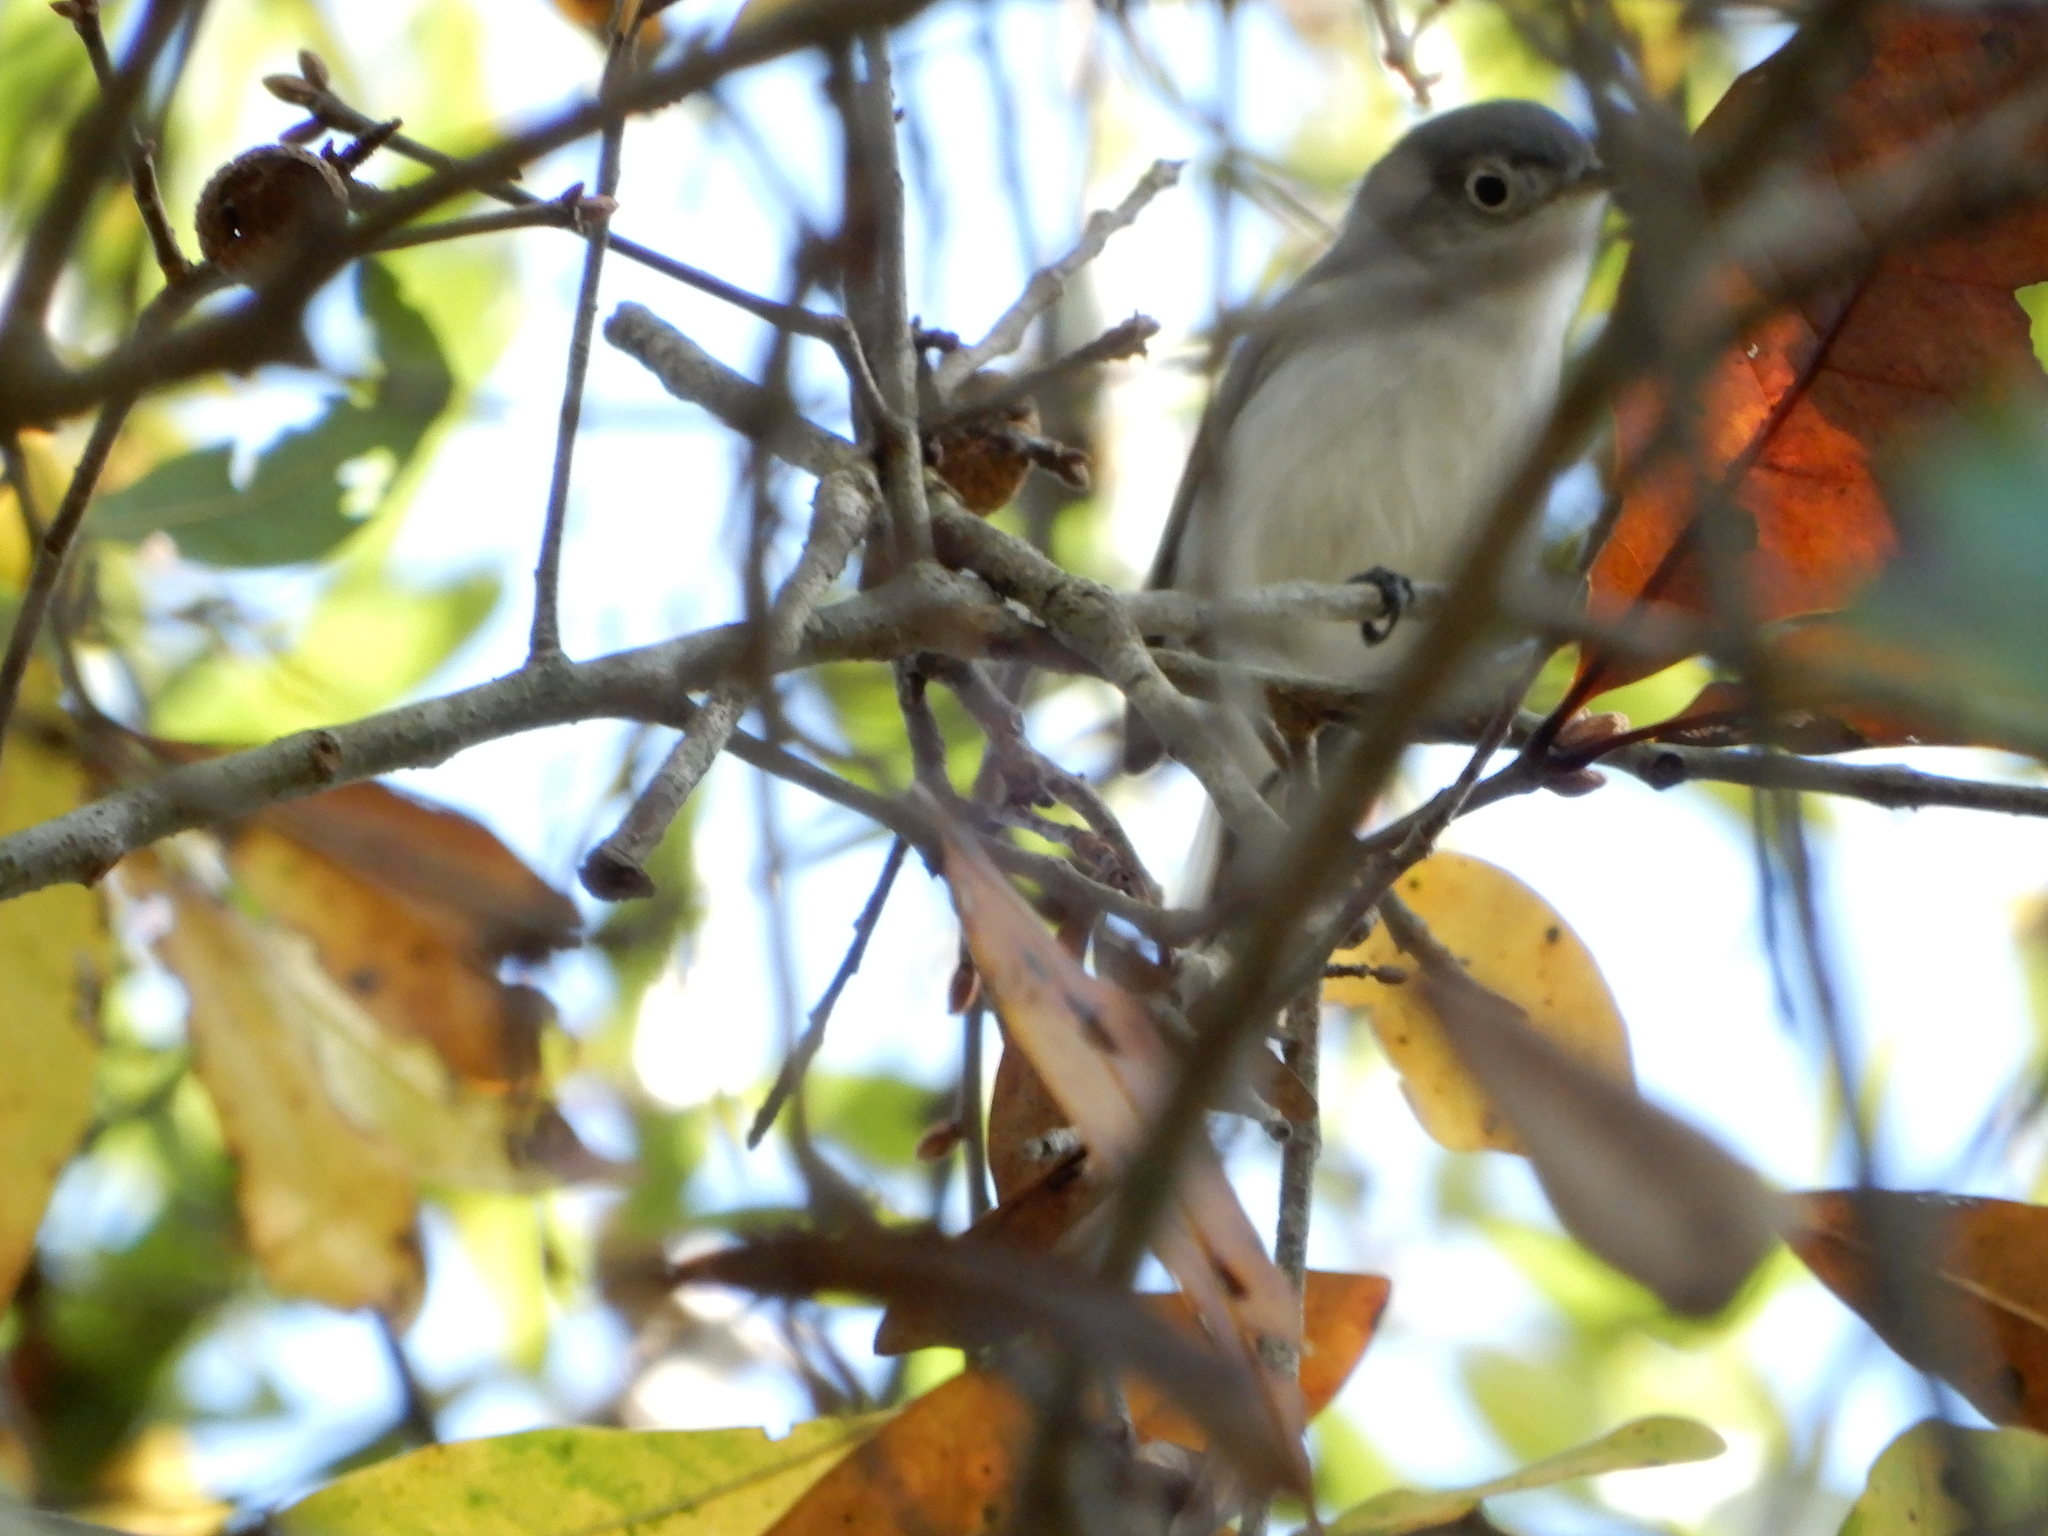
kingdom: Animalia
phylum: Chordata
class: Aves
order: Passeriformes
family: Polioptilidae
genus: Polioptila
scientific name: Polioptila caerulea
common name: Blue-gray gnatcatcher
